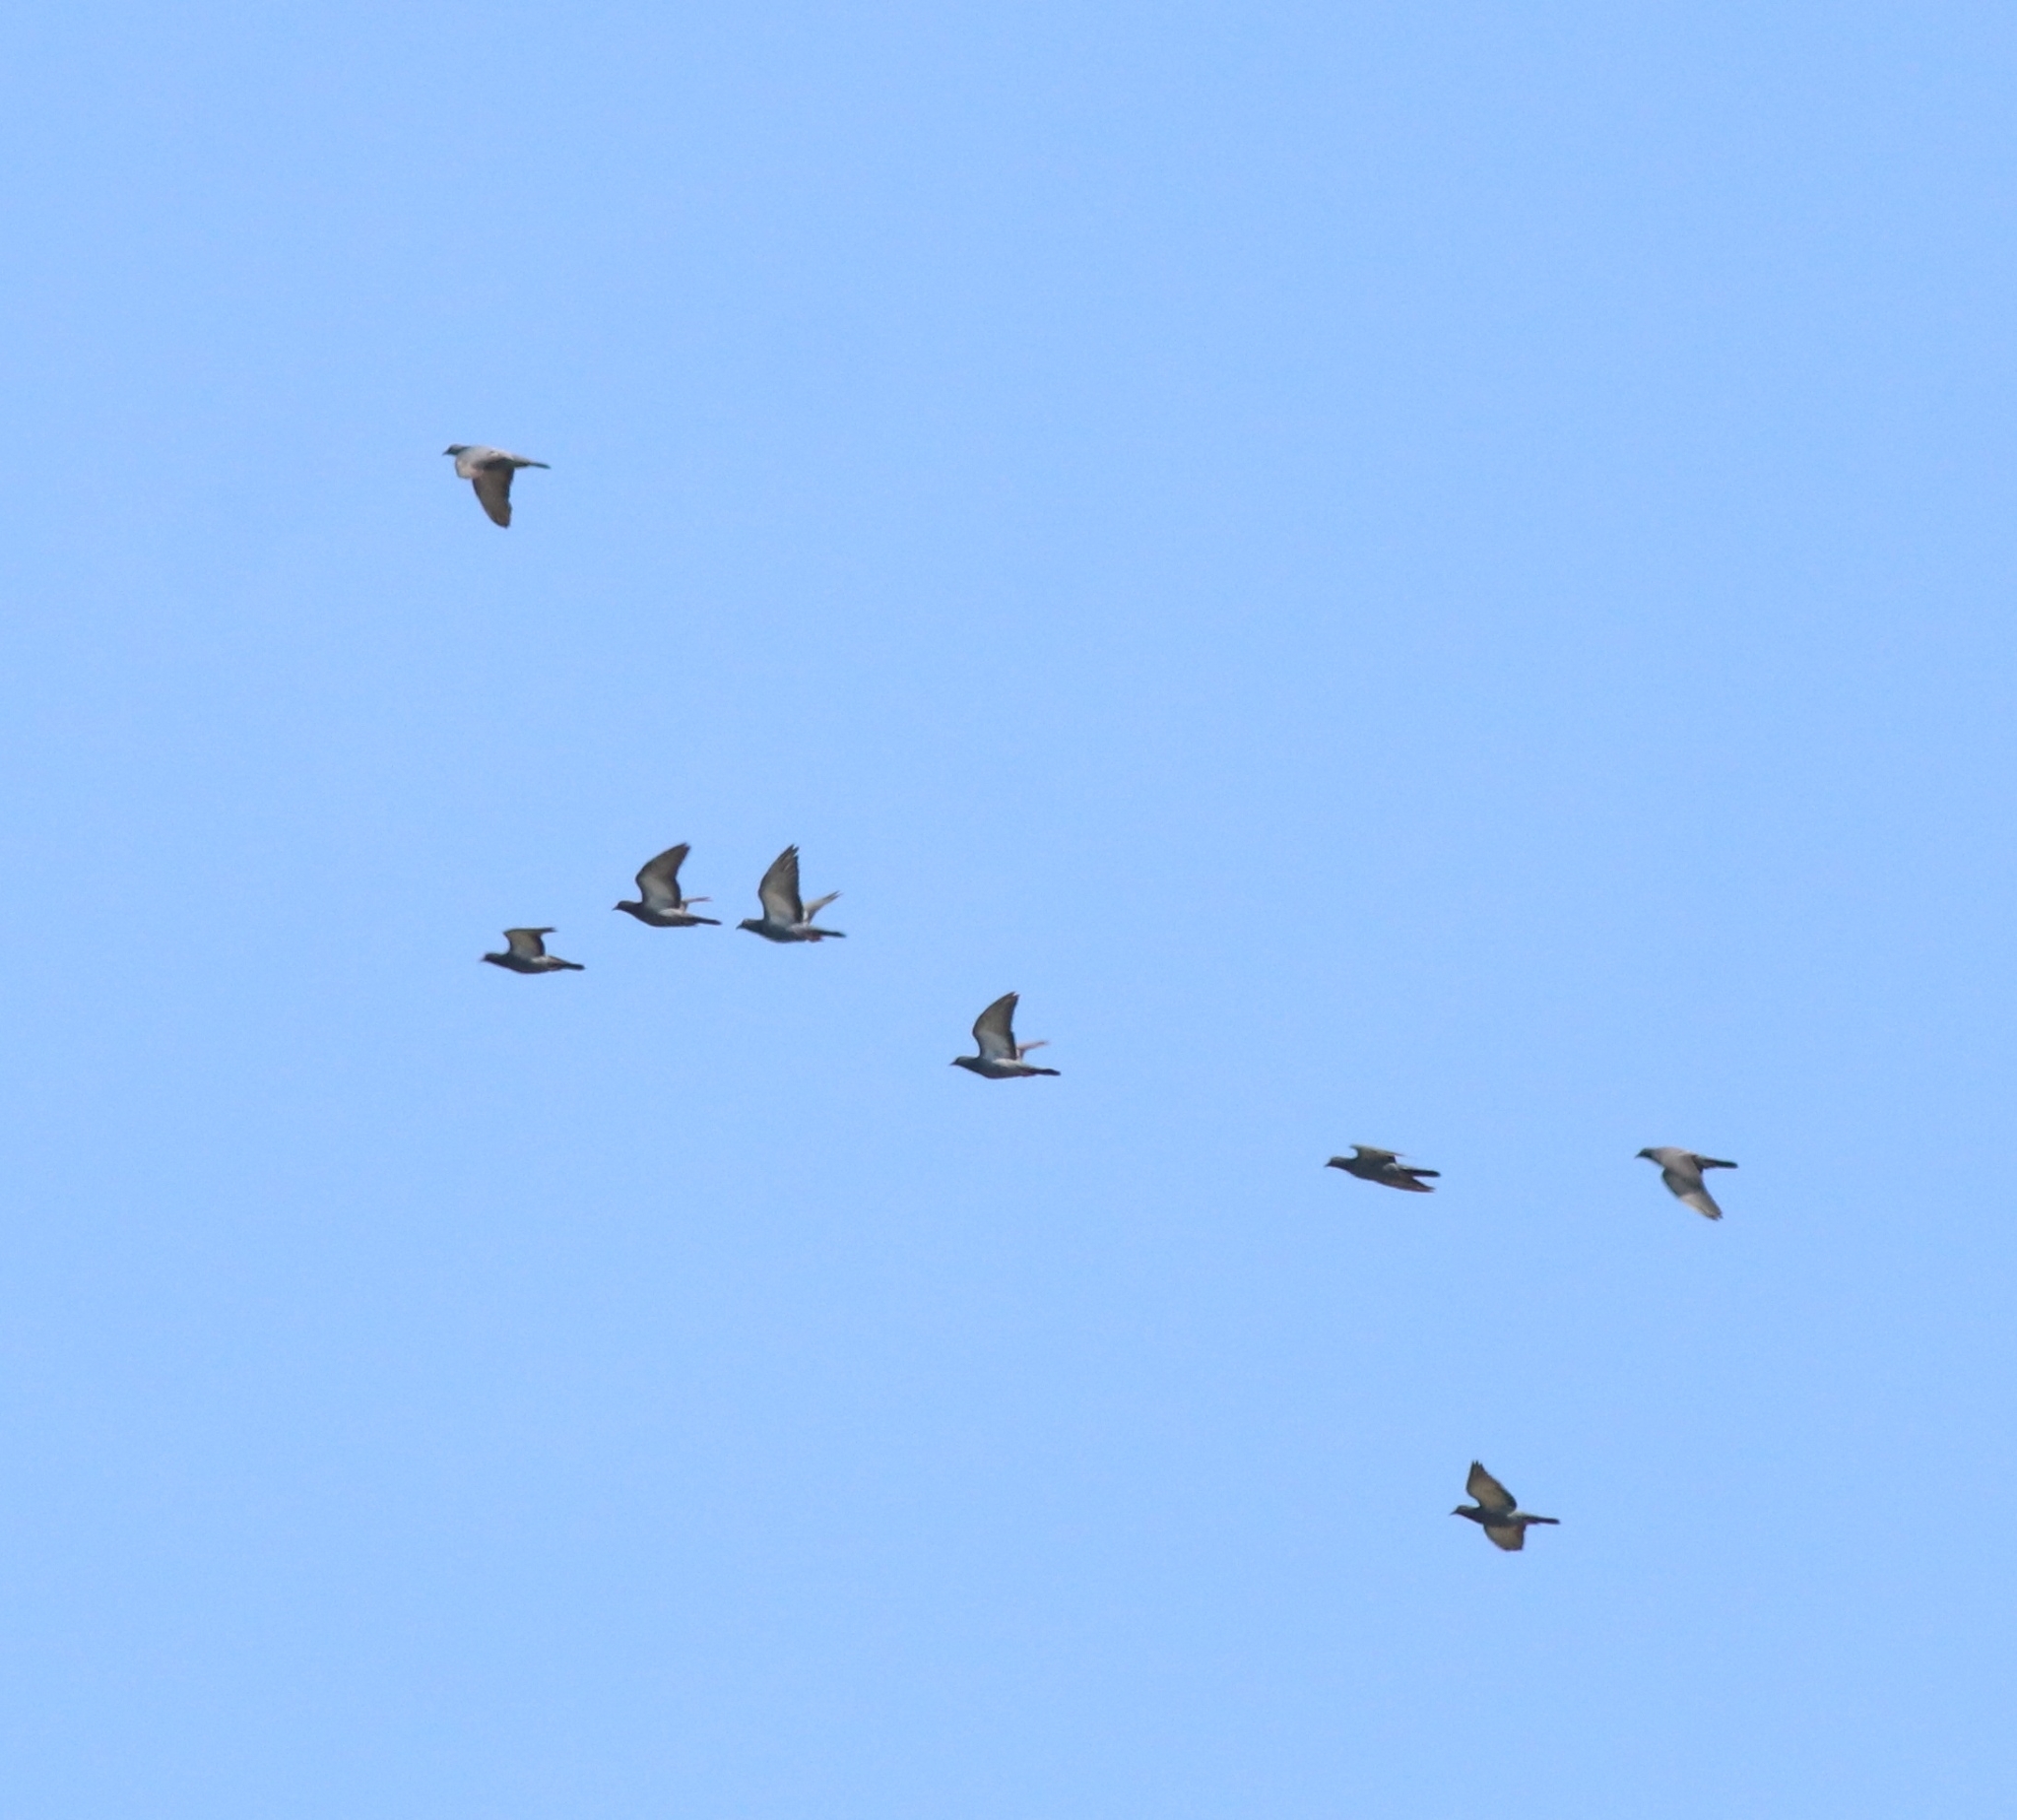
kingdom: Animalia
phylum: Chordata
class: Aves
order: Columbiformes
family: Columbidae
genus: Columba
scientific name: Columba livia
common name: Rock pigeon
